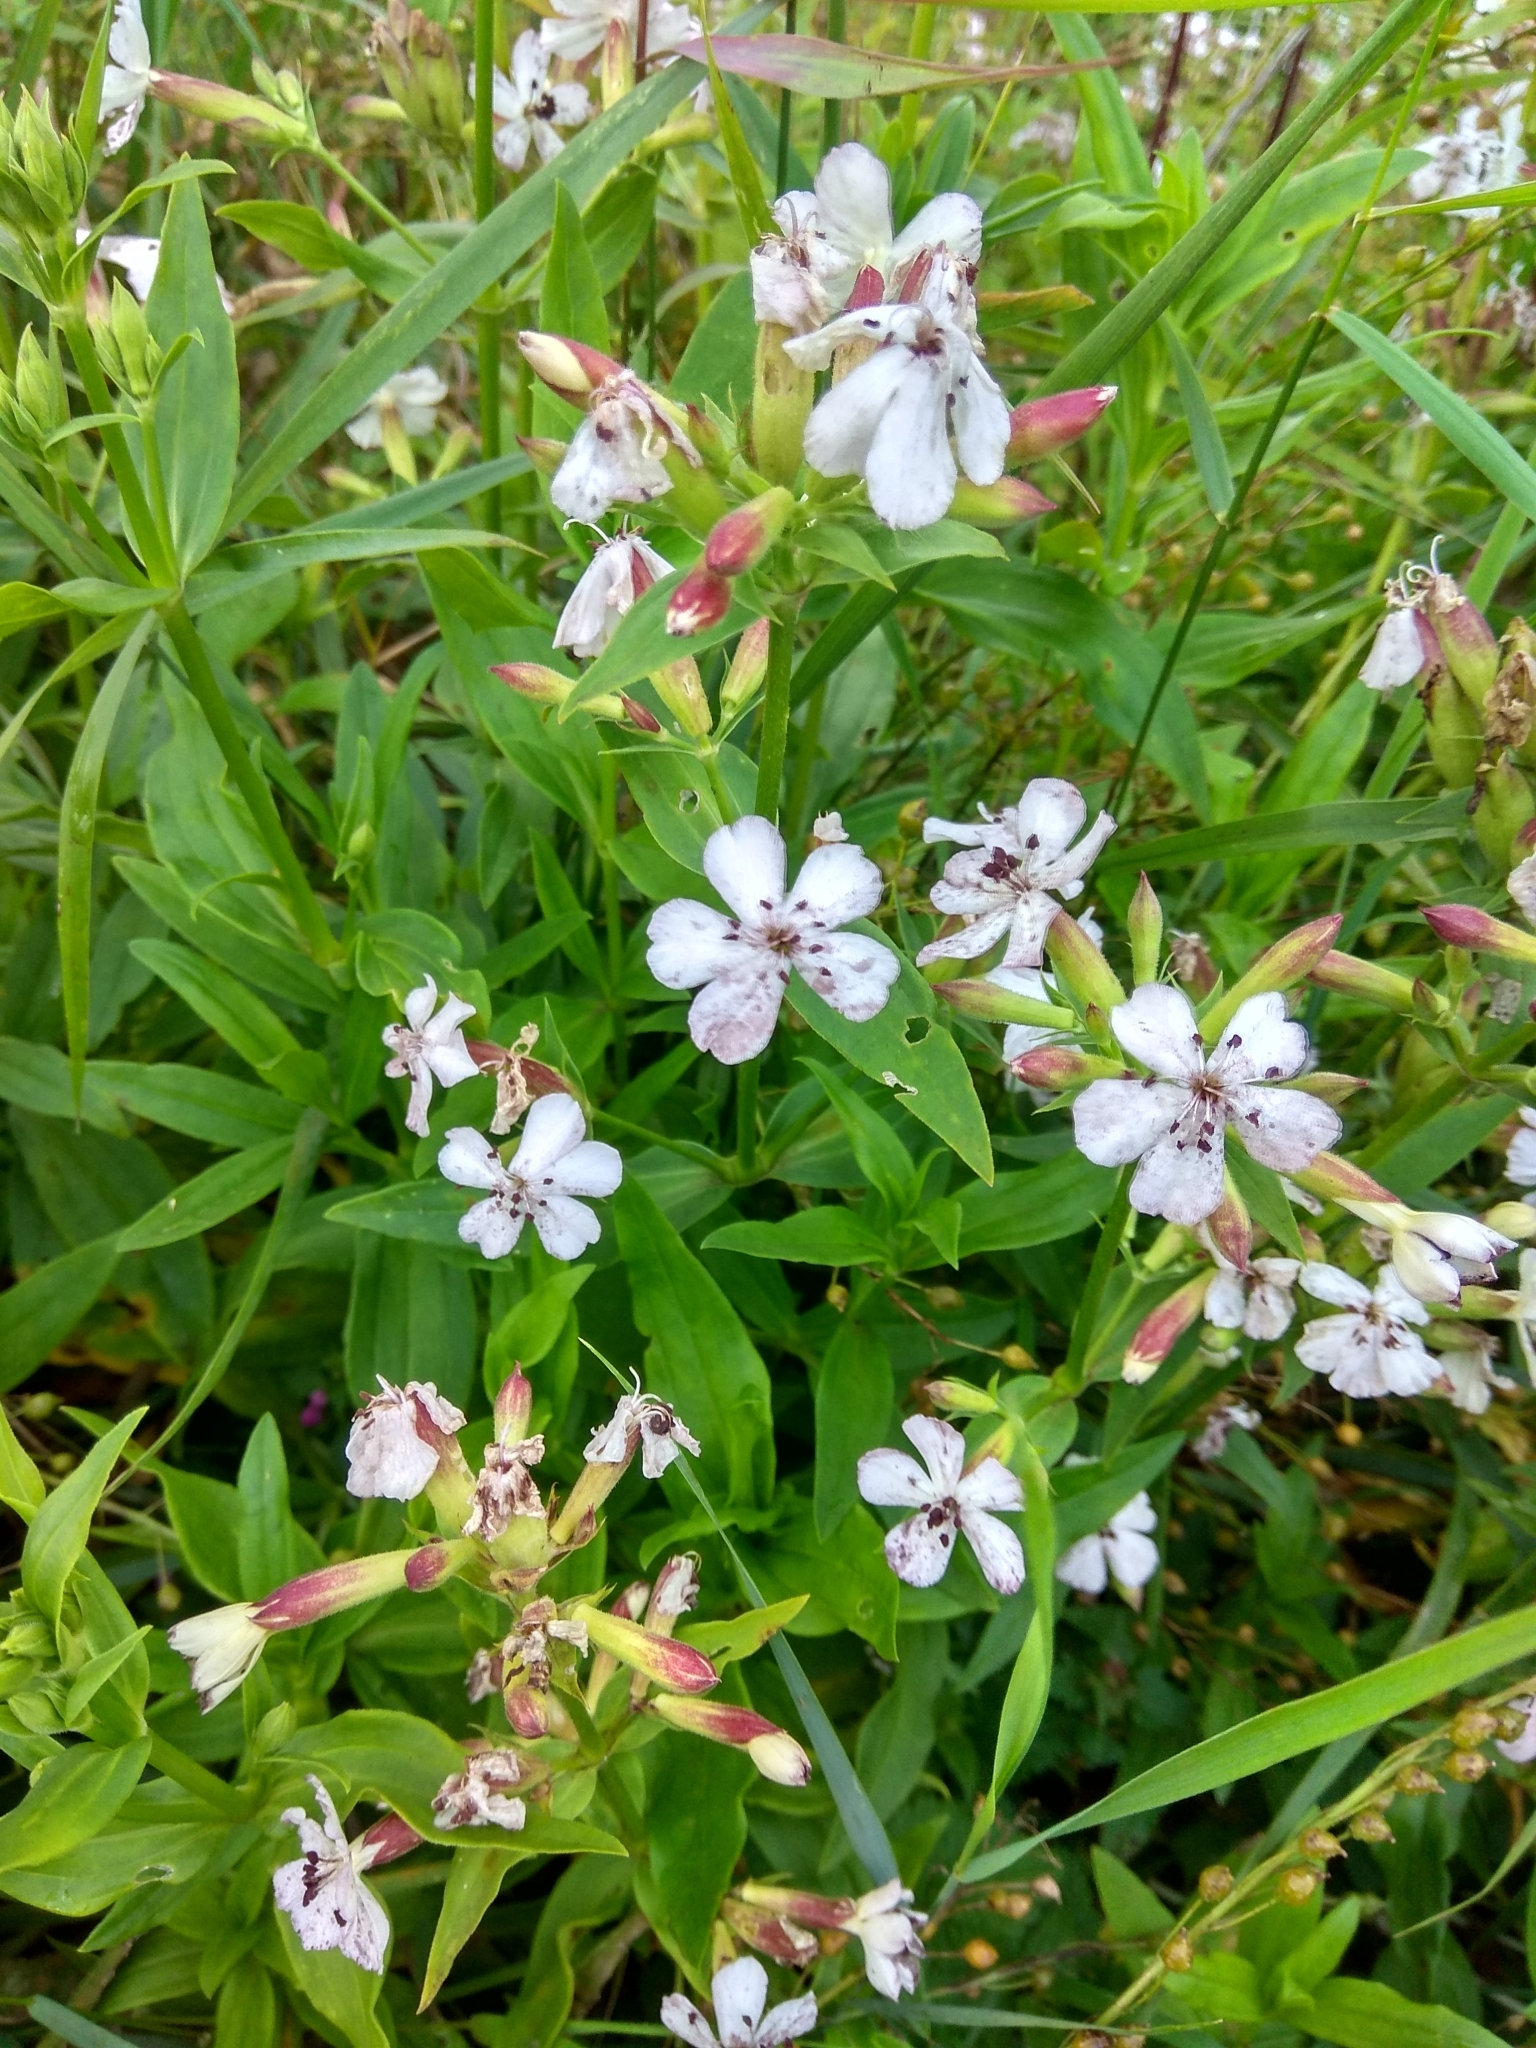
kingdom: Plantae
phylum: Tracheophyta
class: Magnoliopsida
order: Caryophyllales
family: Caryophyllaceae
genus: Saponaria
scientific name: Saponaria officinalis
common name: Soapwort
